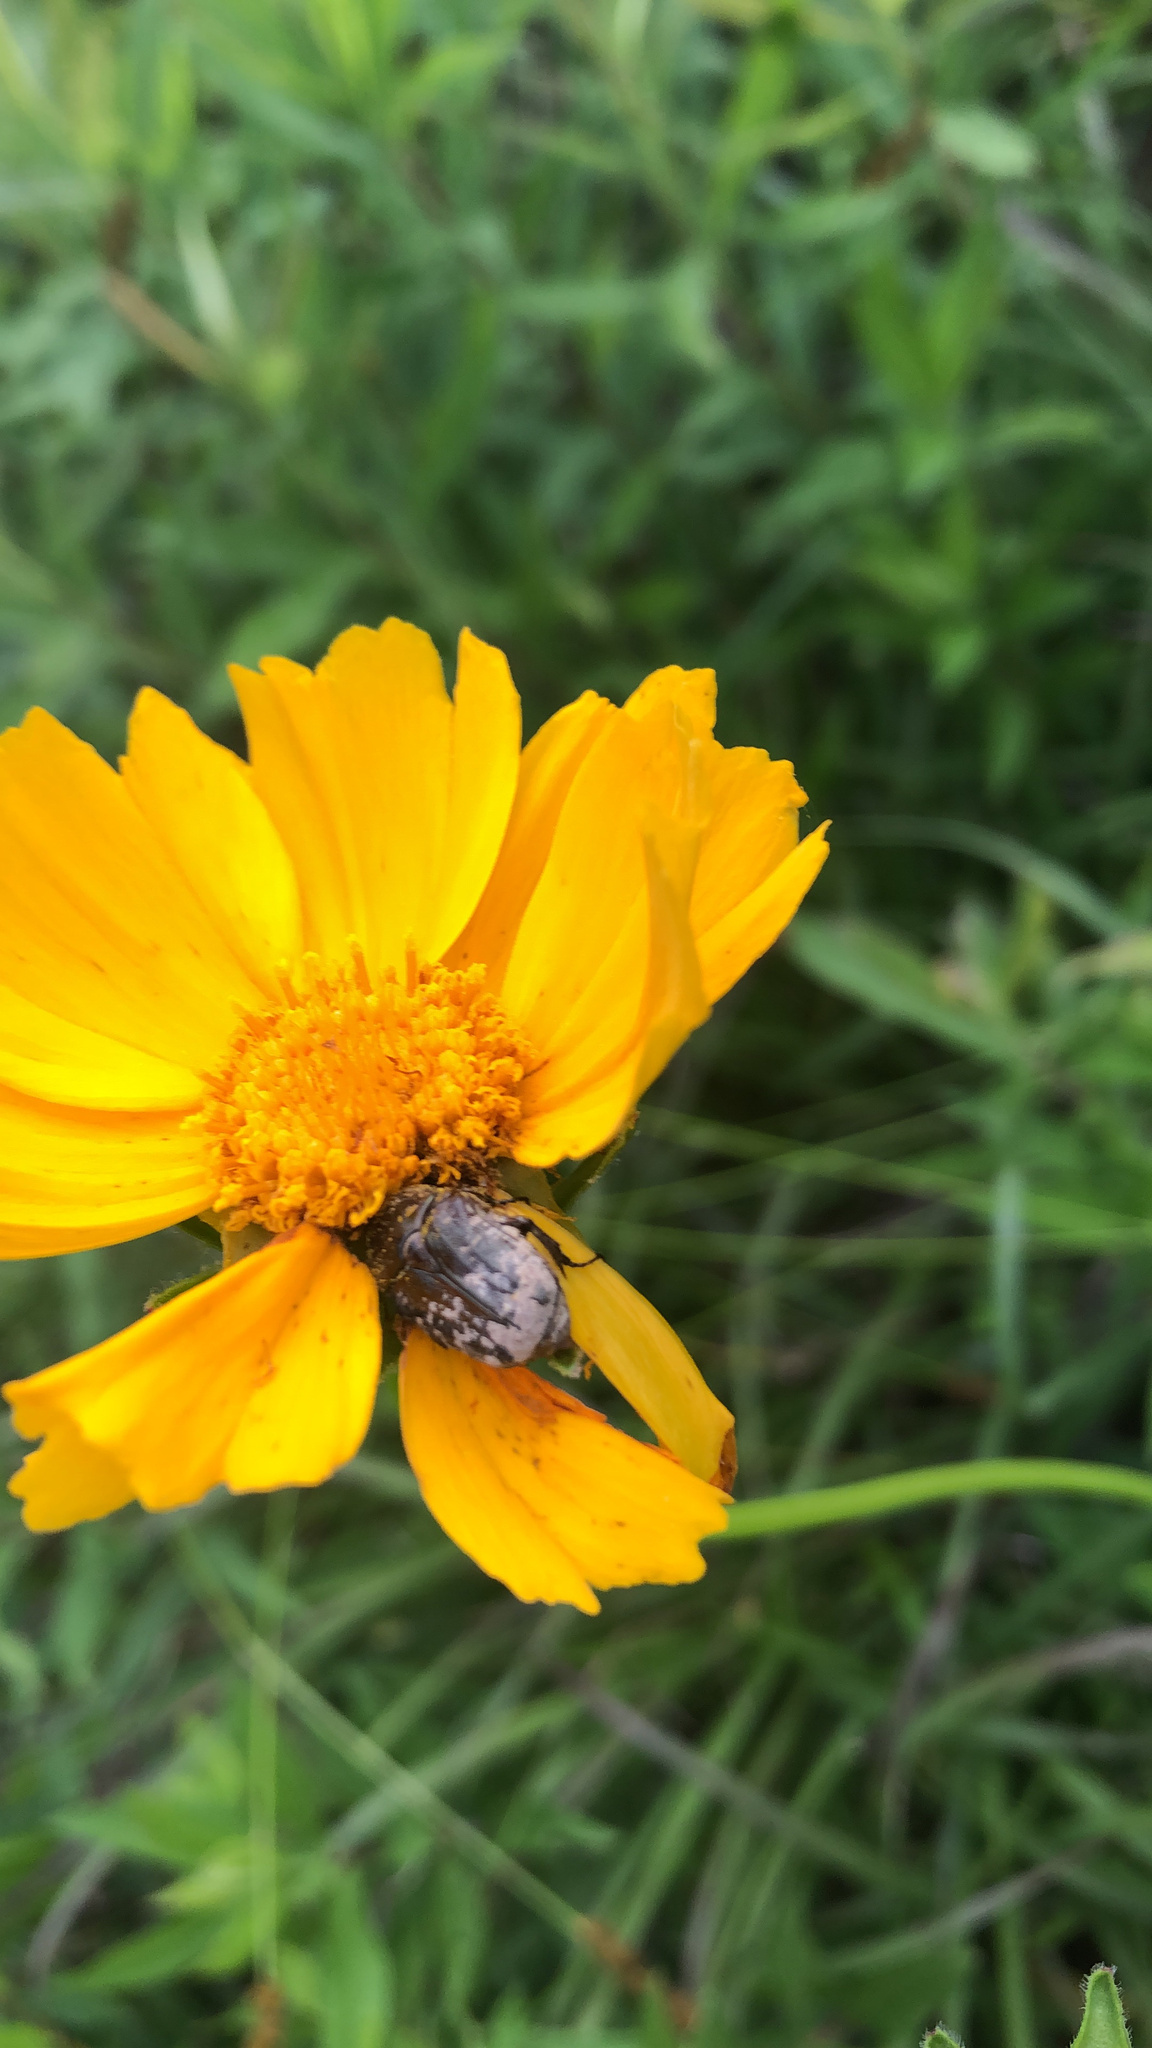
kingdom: Animalia
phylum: Arthropoda
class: Insecta
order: Coleoptera
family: Scarabaeidae
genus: Euphoria
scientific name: Euphoria sepulcralis
